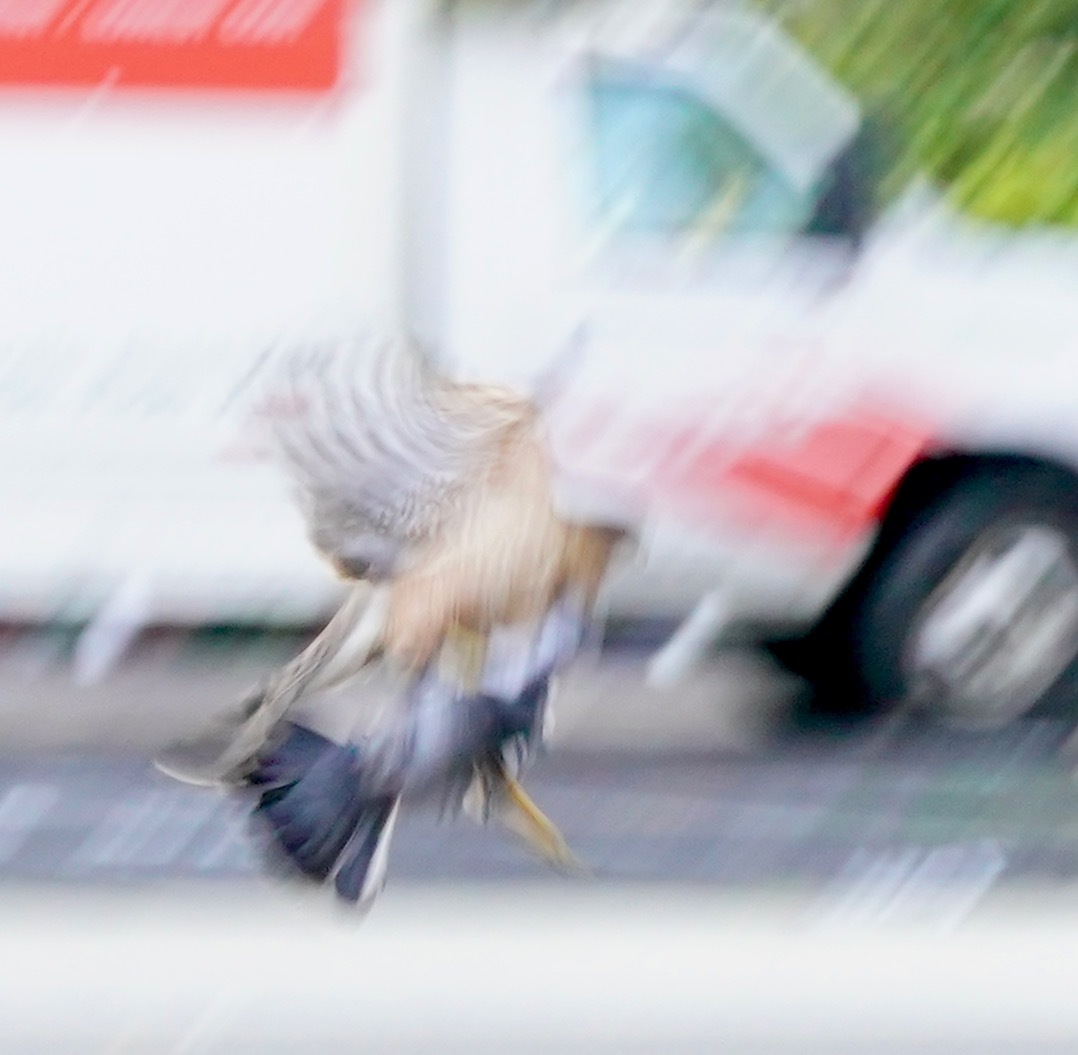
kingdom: Animalia
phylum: Chordata
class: Aves
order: Accipitriformes
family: Accipitridae
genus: Accipiter
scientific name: Accipiter cooperii
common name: Cooper's hawk
